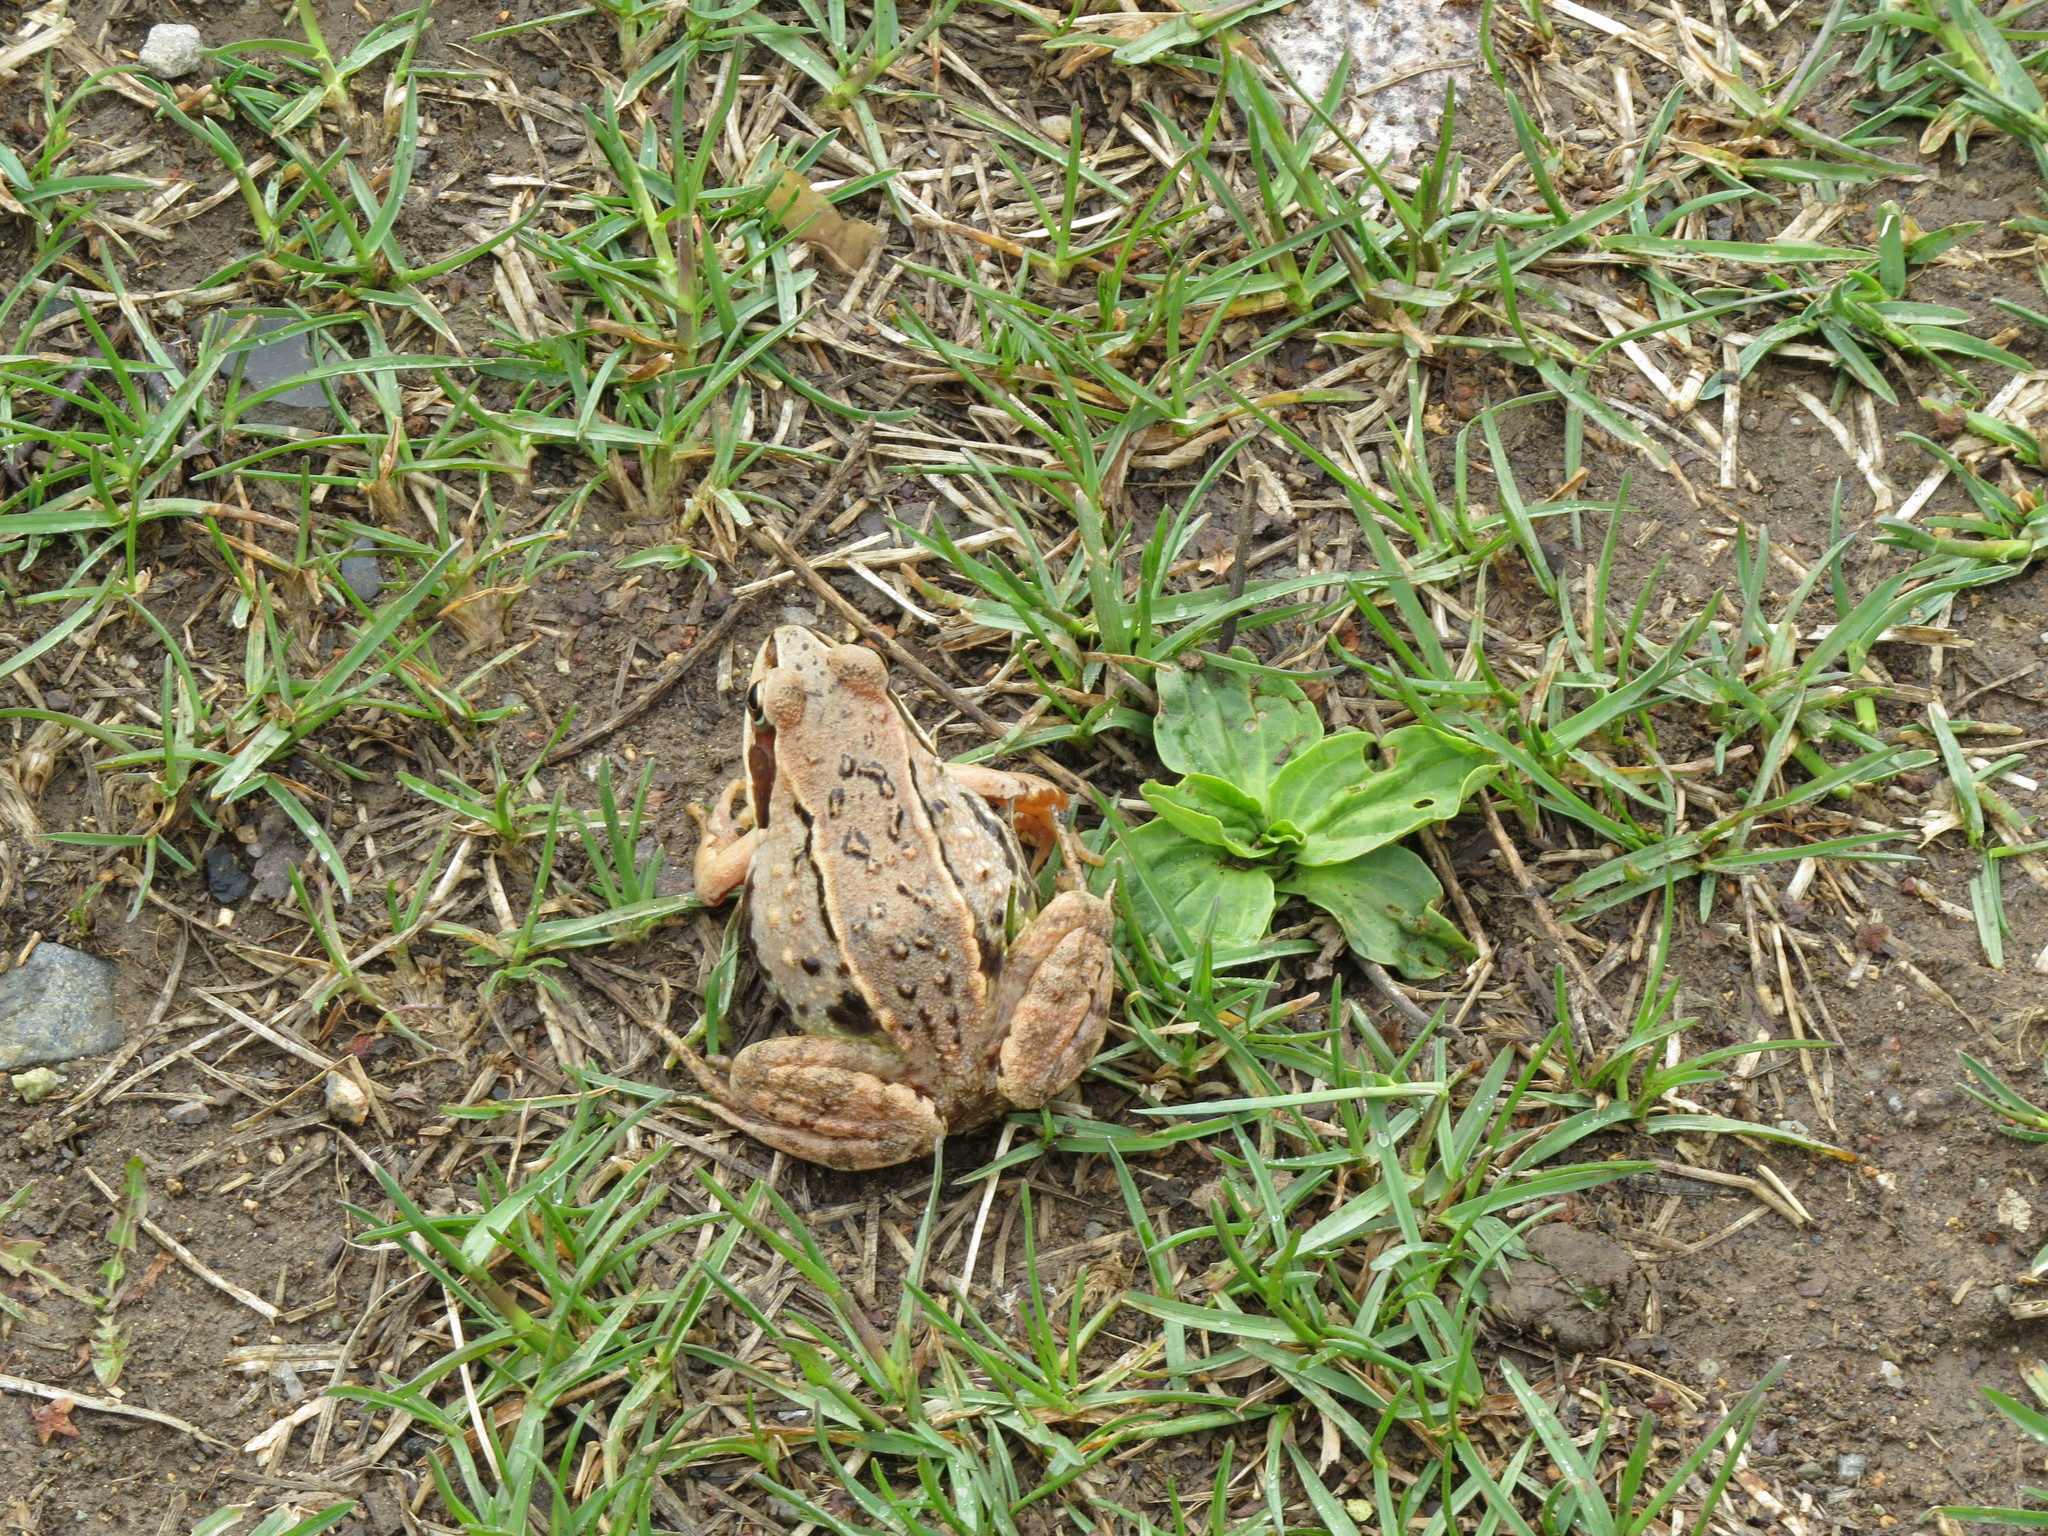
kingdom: Animalia
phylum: Chordata
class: Amphibia
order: Anura
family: Ranidae
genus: Rana
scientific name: Rana arvalis
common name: Moor frog
